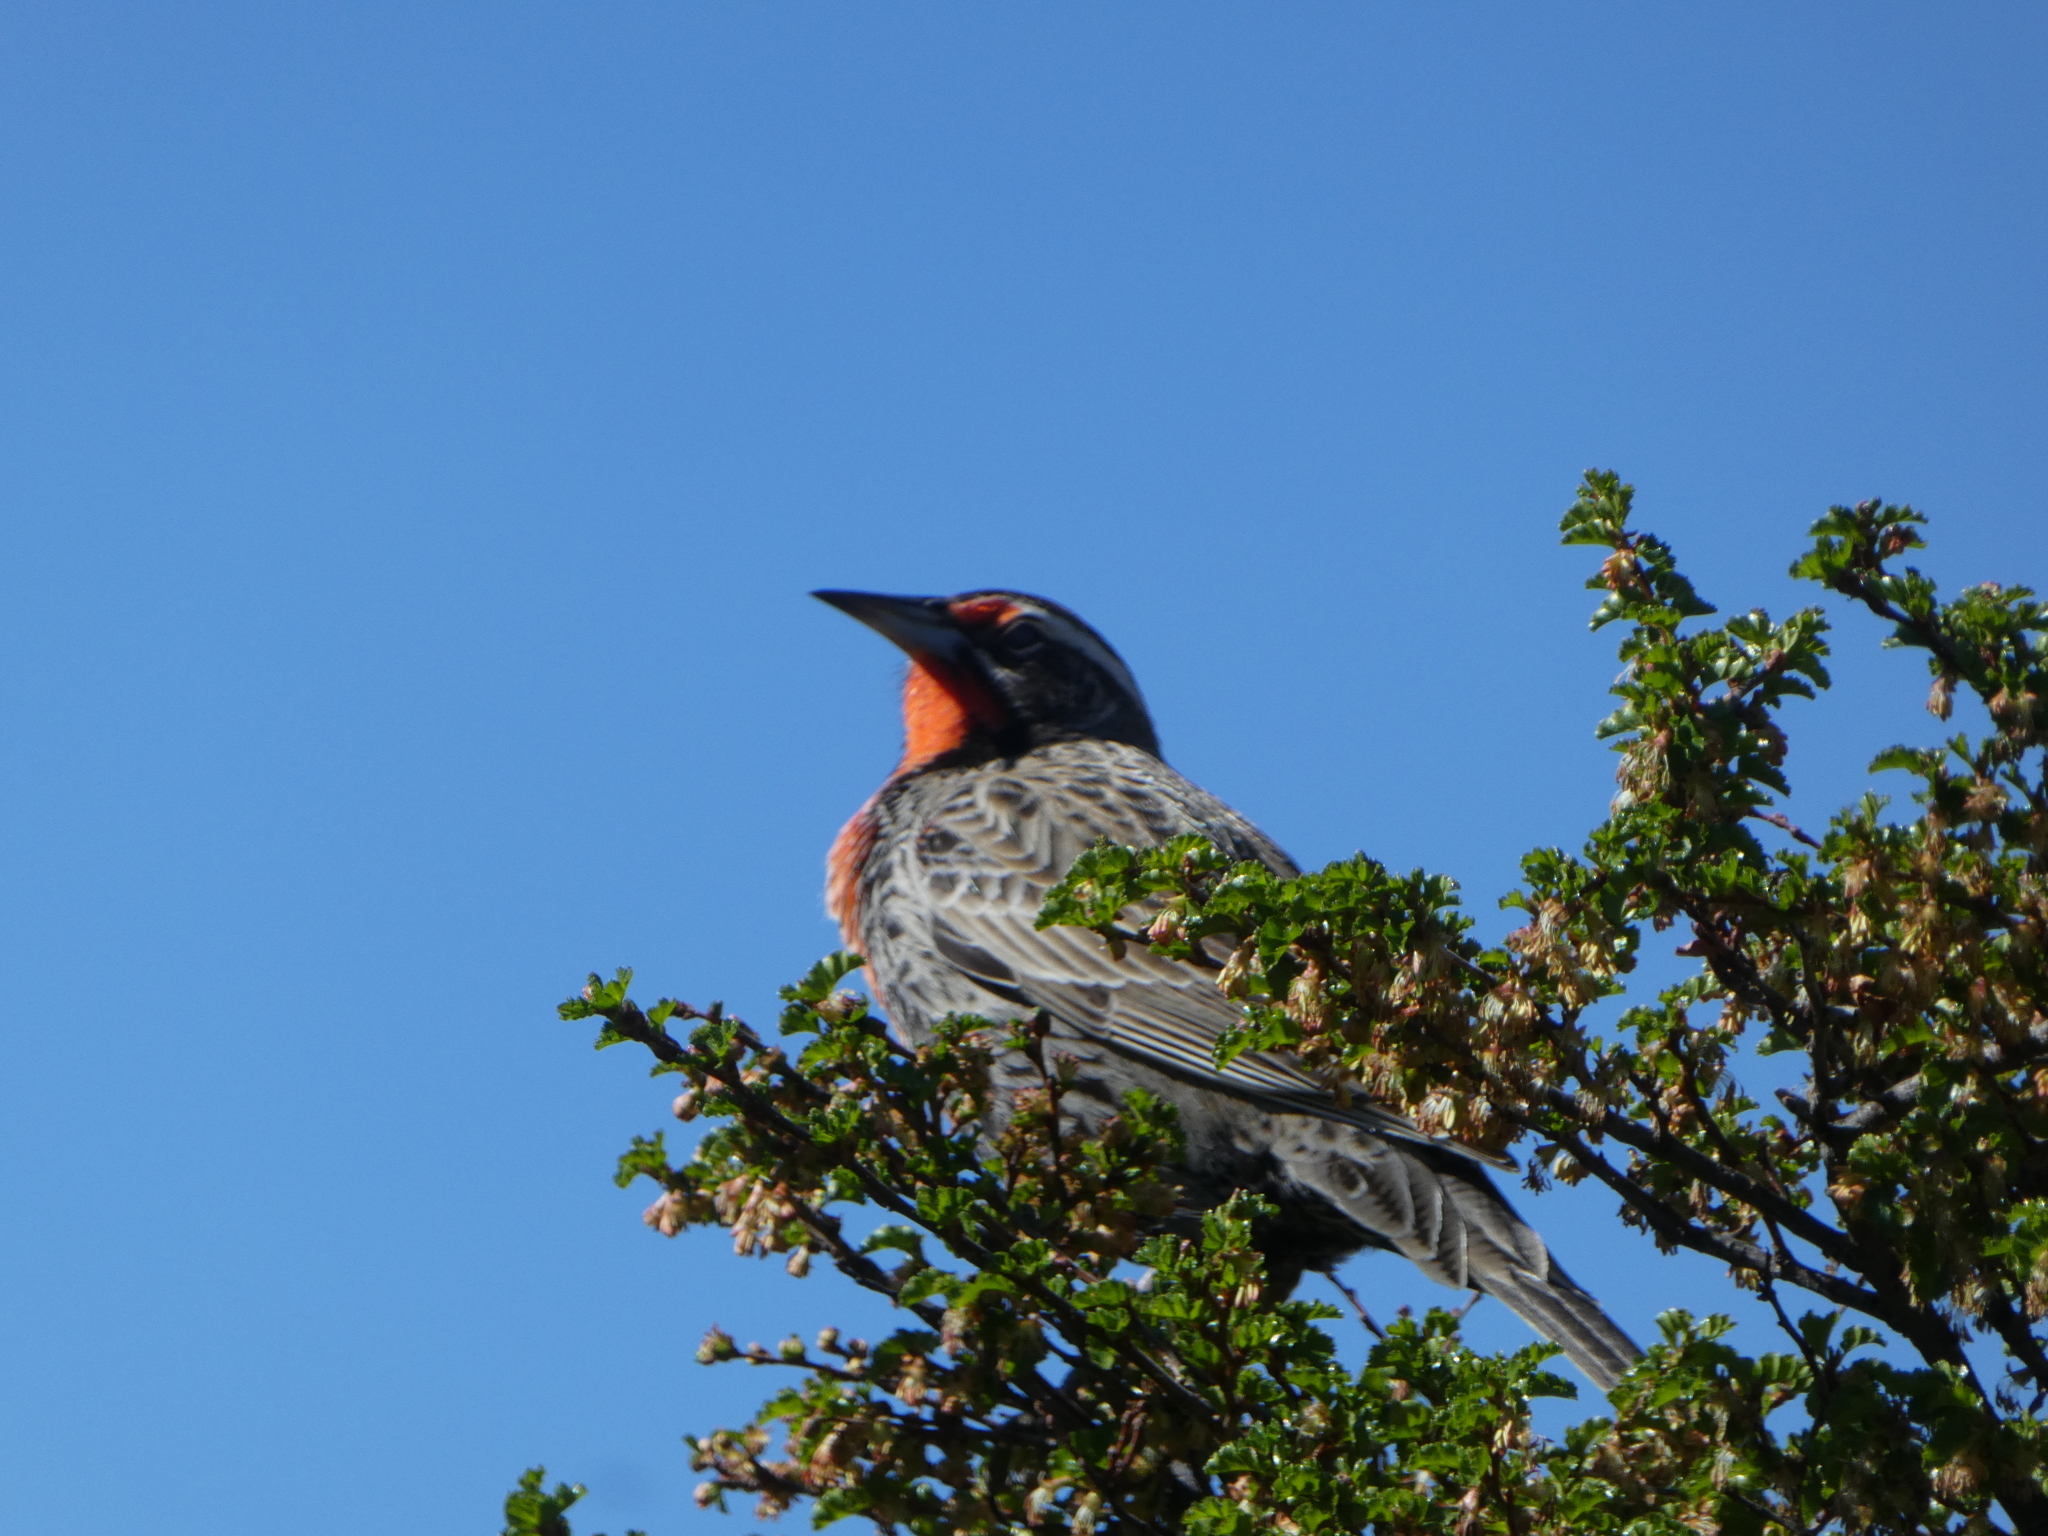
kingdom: Animalia
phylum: Chordata
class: Aves
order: Passeriformes
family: Icteridae
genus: Sturnella
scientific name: Sturnella loyca
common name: Long-tailed meadowlark
